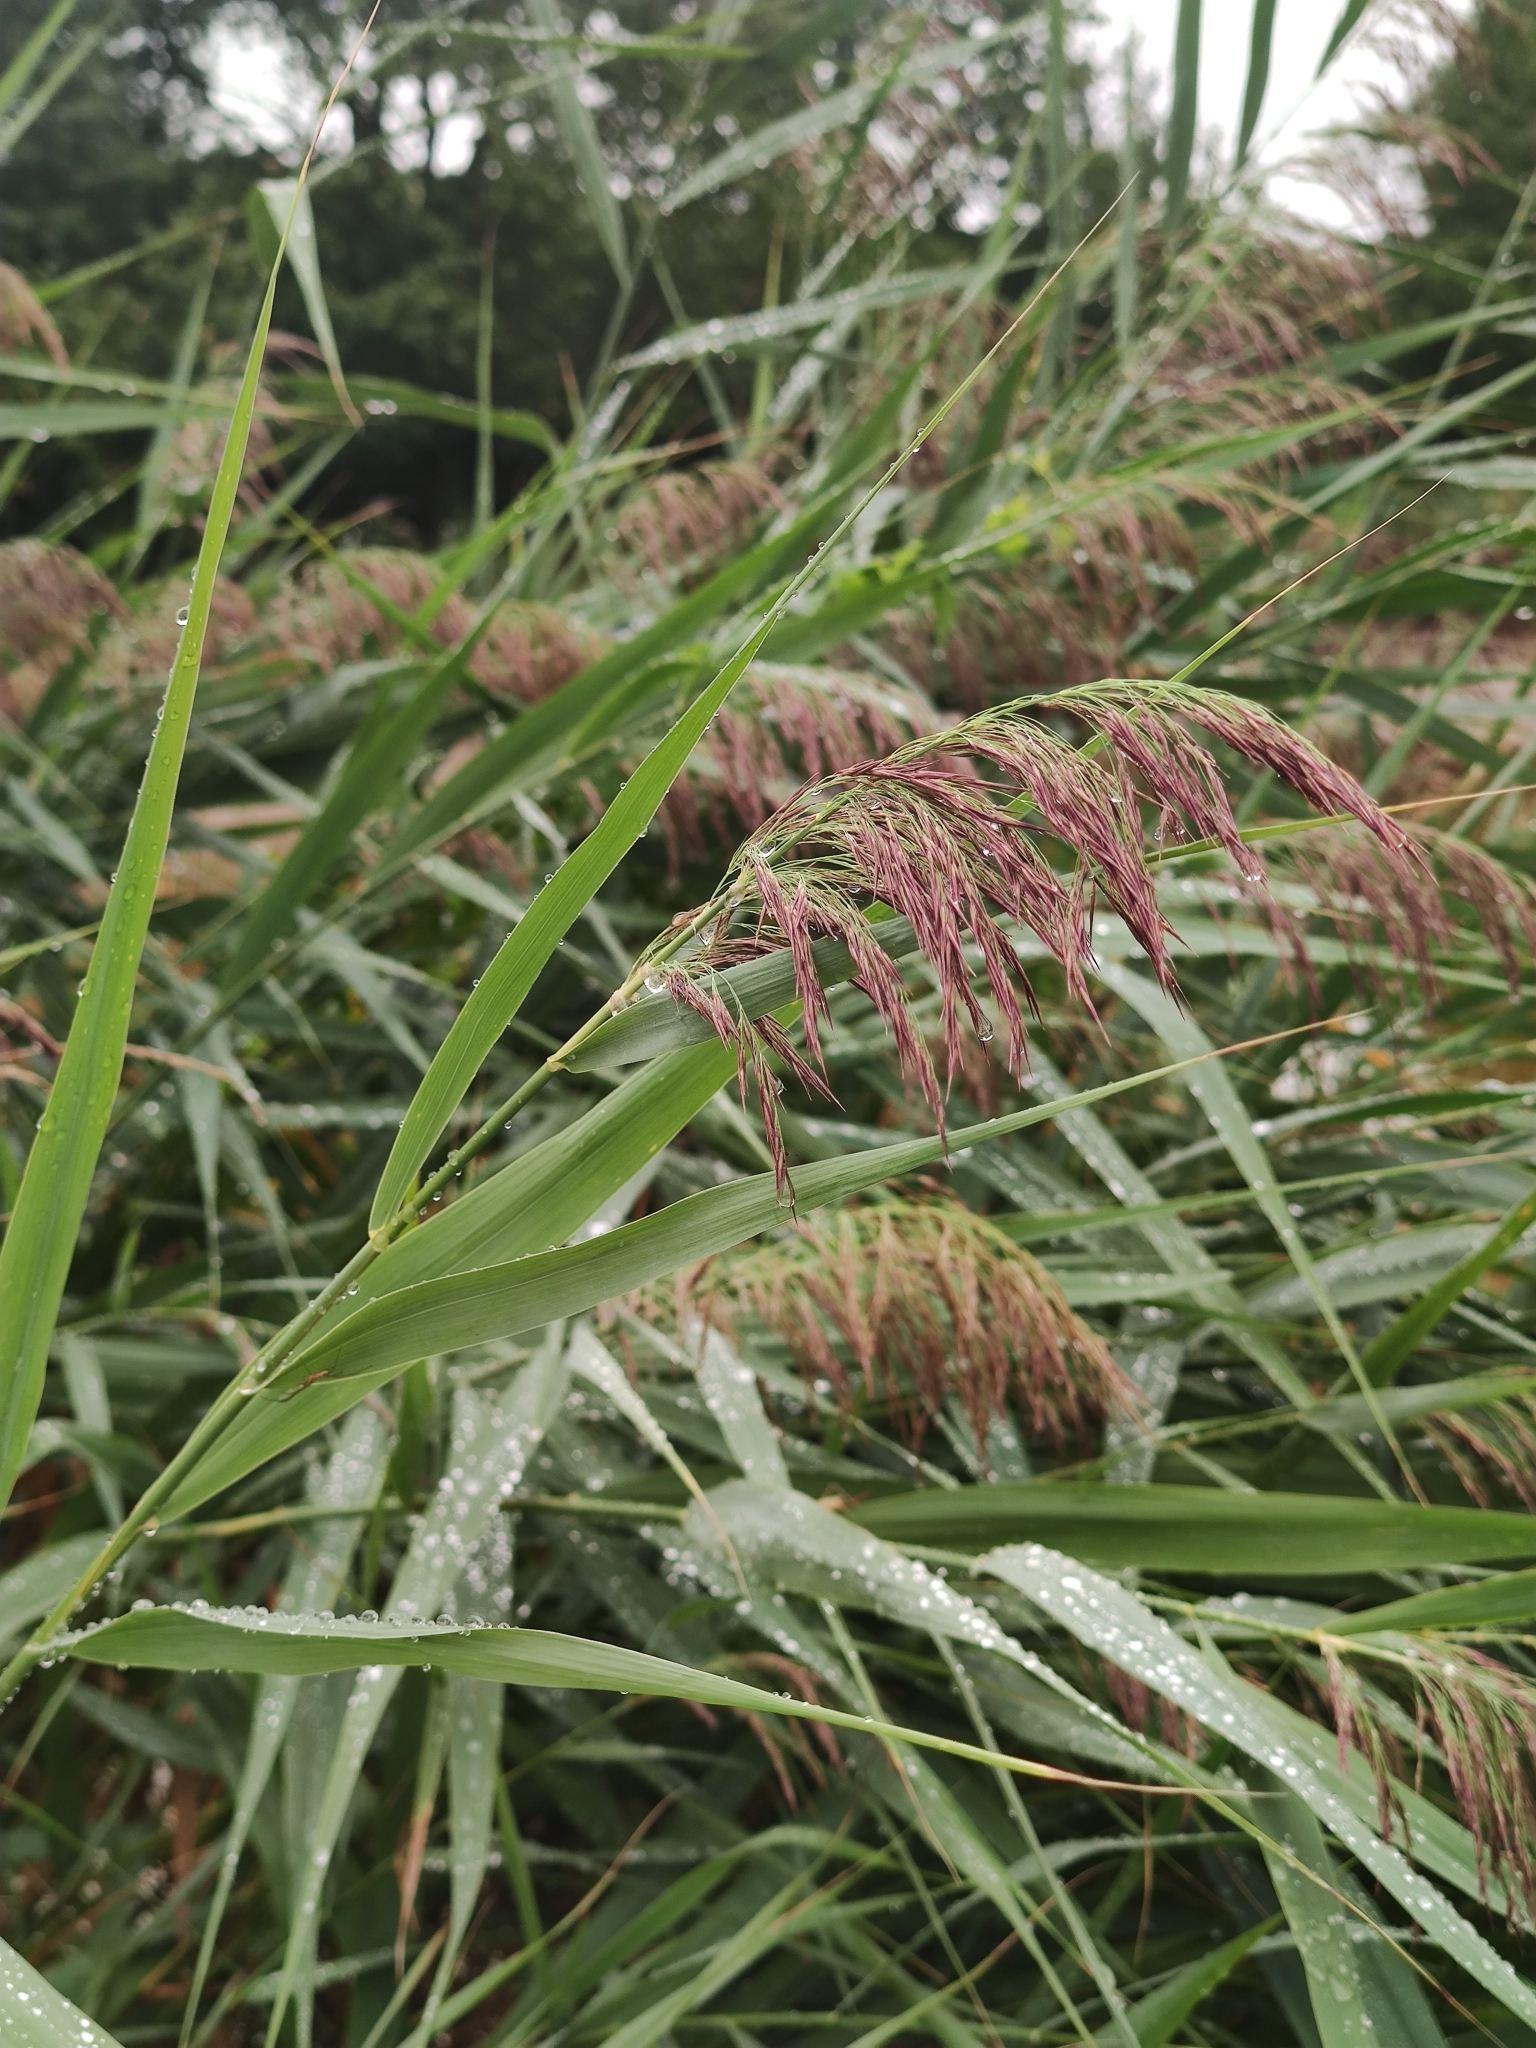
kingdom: Plantae
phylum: Tracheophyta
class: Liliopsida
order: Poales
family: Poaceae
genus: Phragmites
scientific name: Phragmites australis
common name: Common reed
